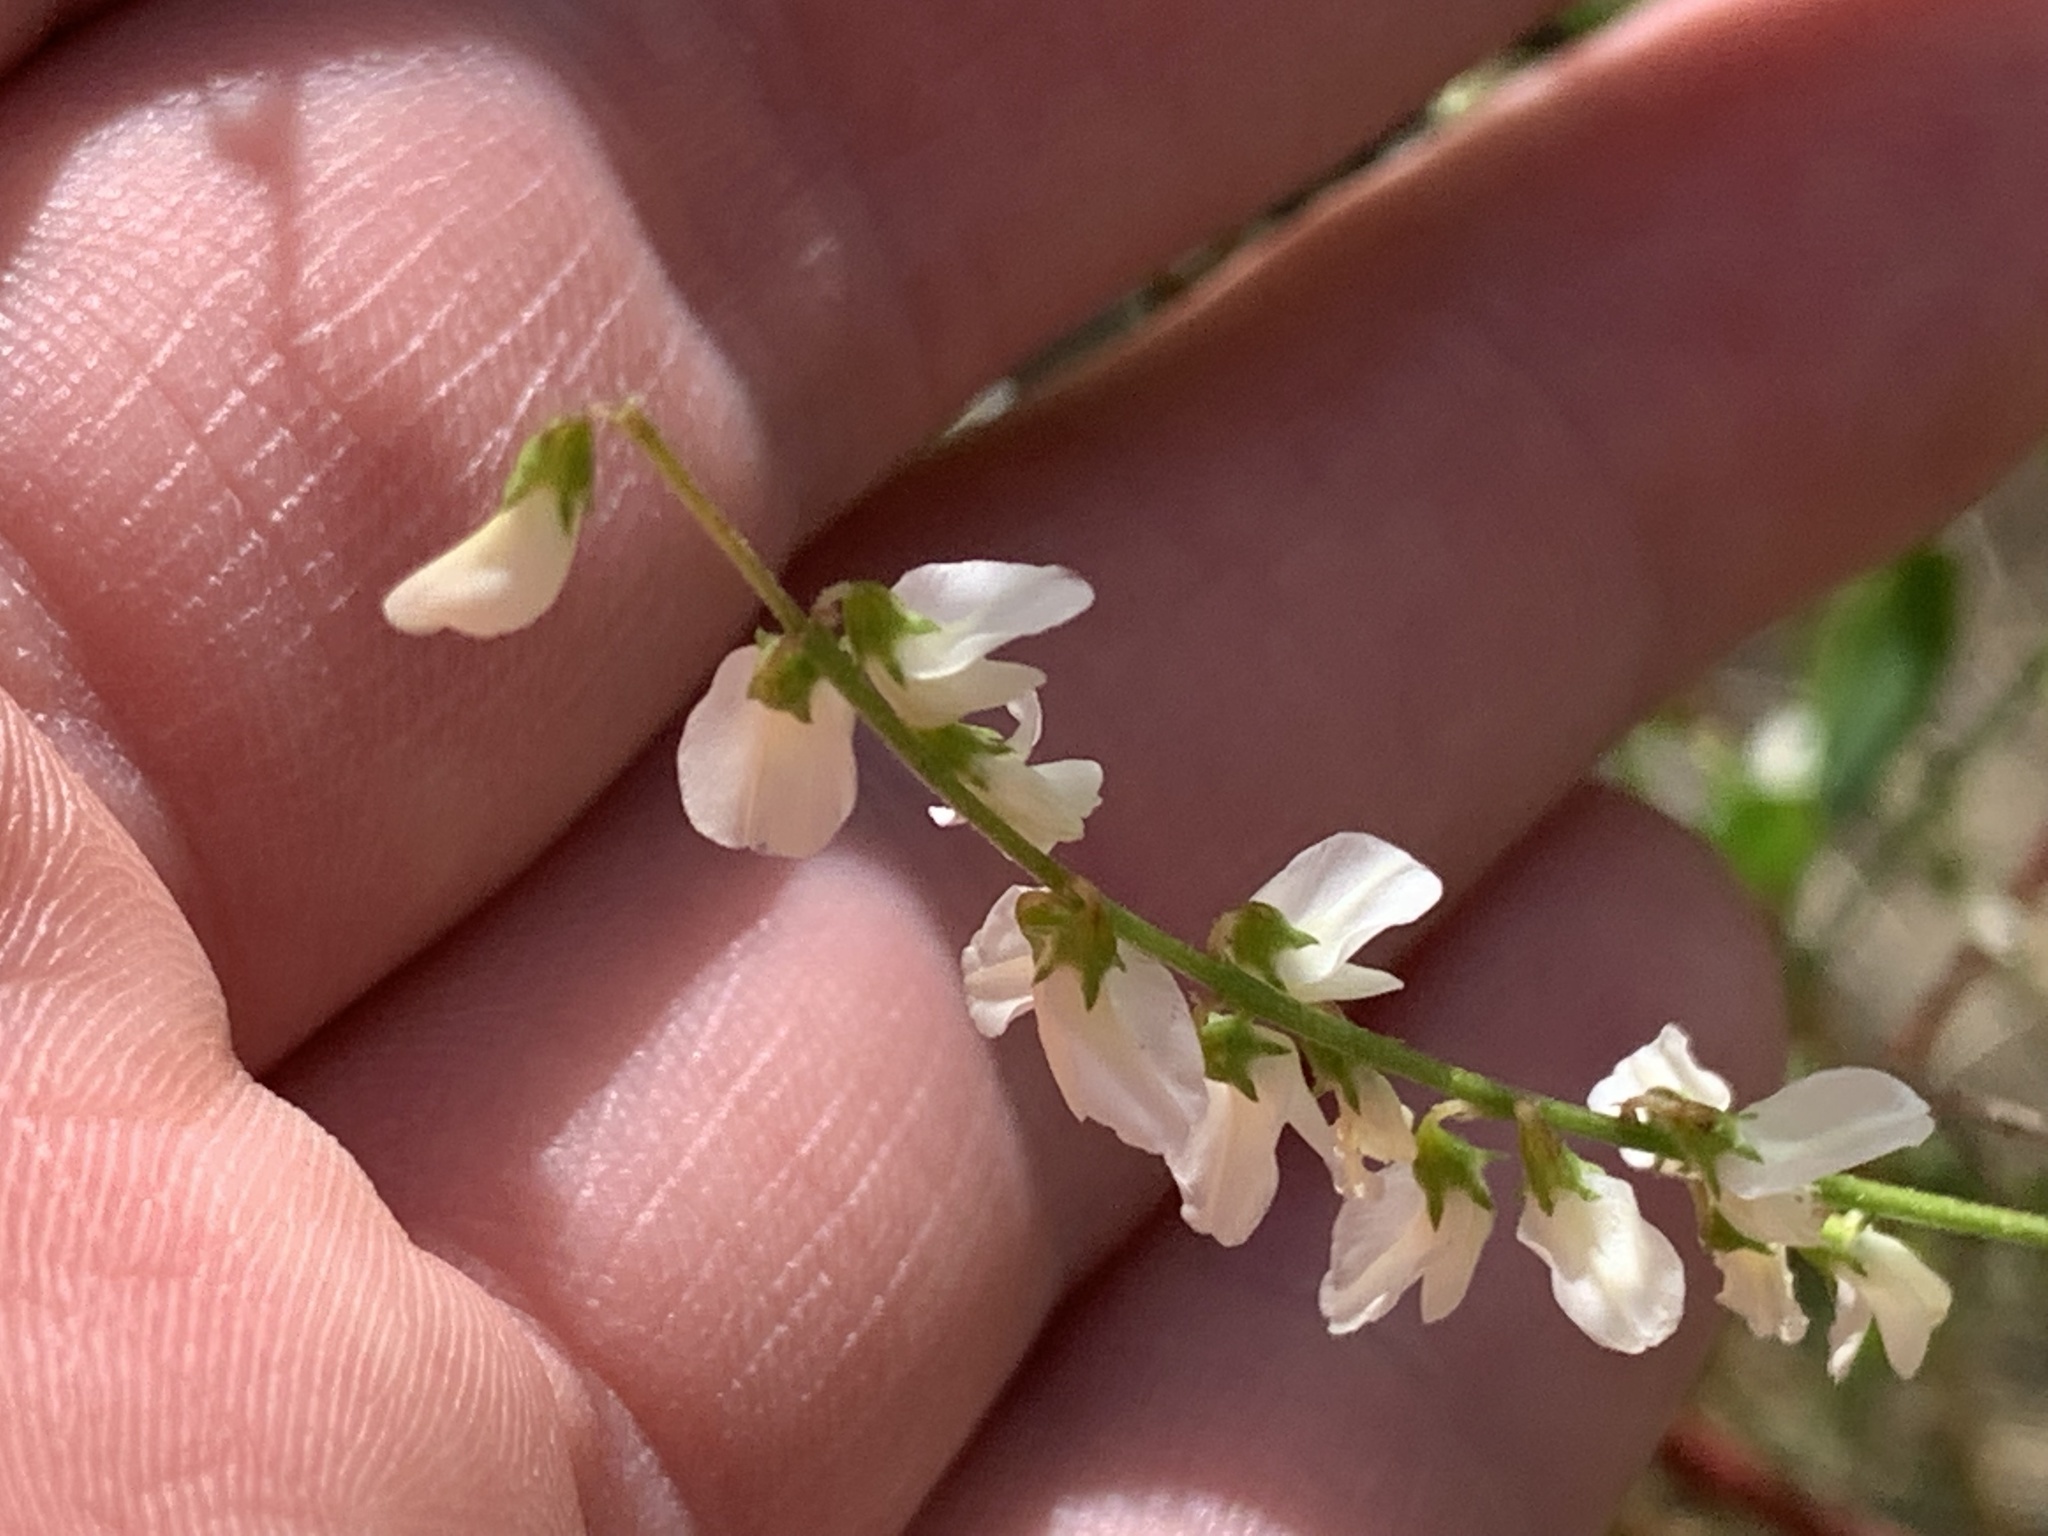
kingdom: Plantae
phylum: Tracheophyta
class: Magnoliopsida
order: Fabales
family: Fabaceae
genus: Melilotus
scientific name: Melilotus albus
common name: White melilot
